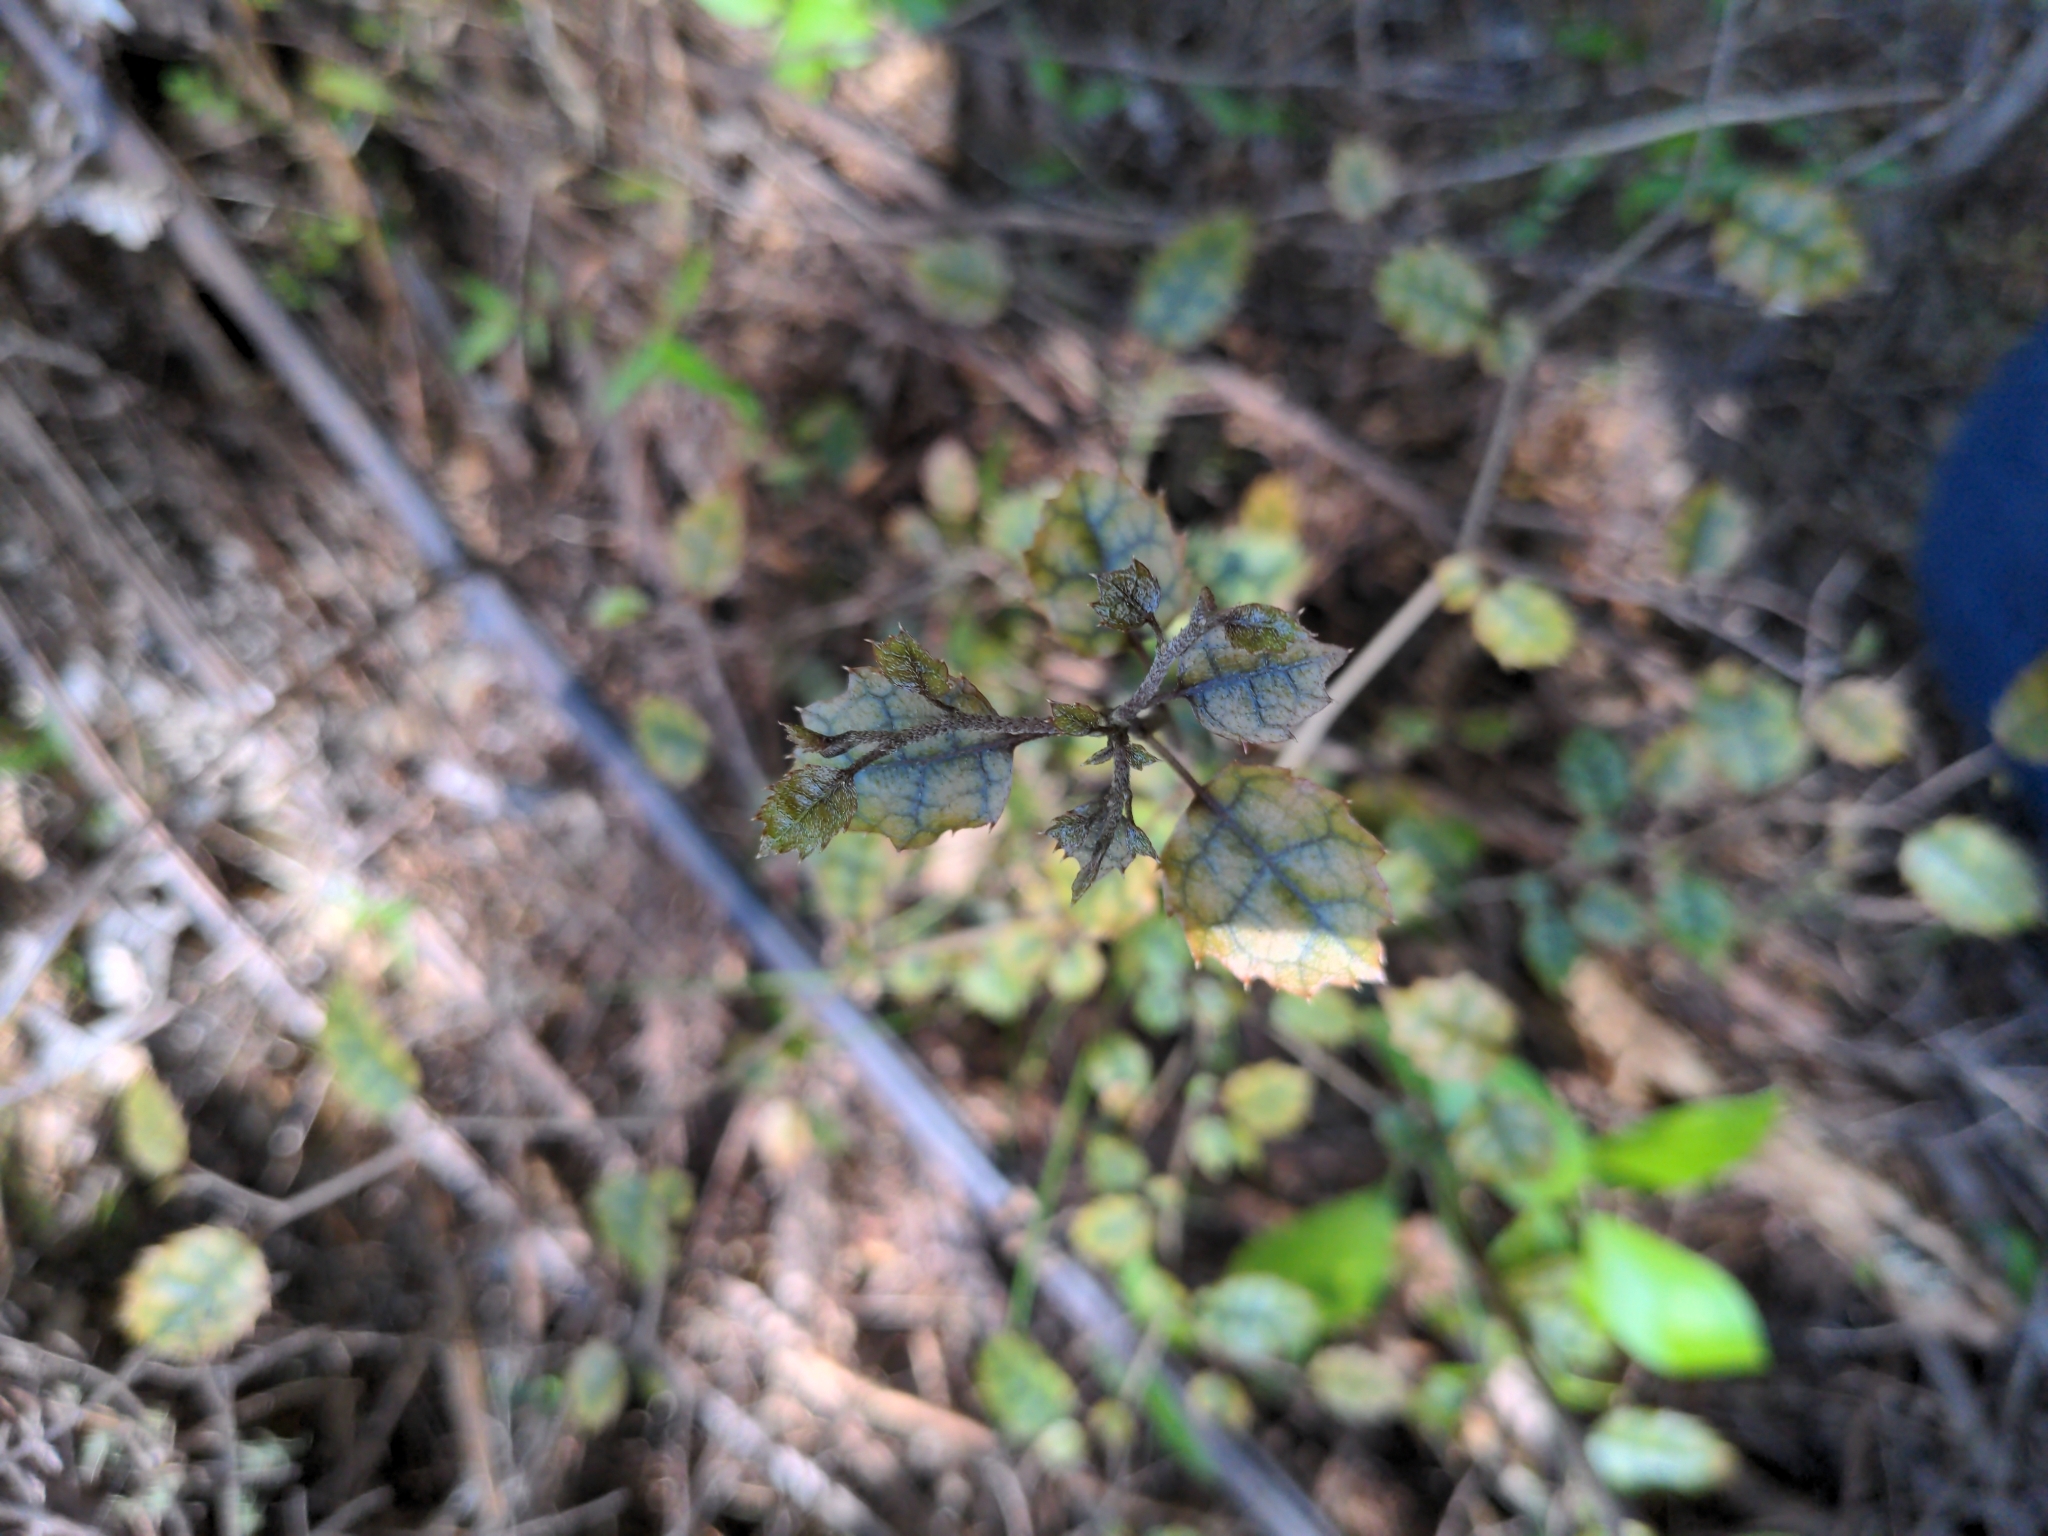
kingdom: Plantae
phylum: Tracheophyta
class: Magnoliopsida
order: Asterales
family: Rousseaceae
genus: Carpodetus
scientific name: Carpodetus serratus
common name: White mapau
